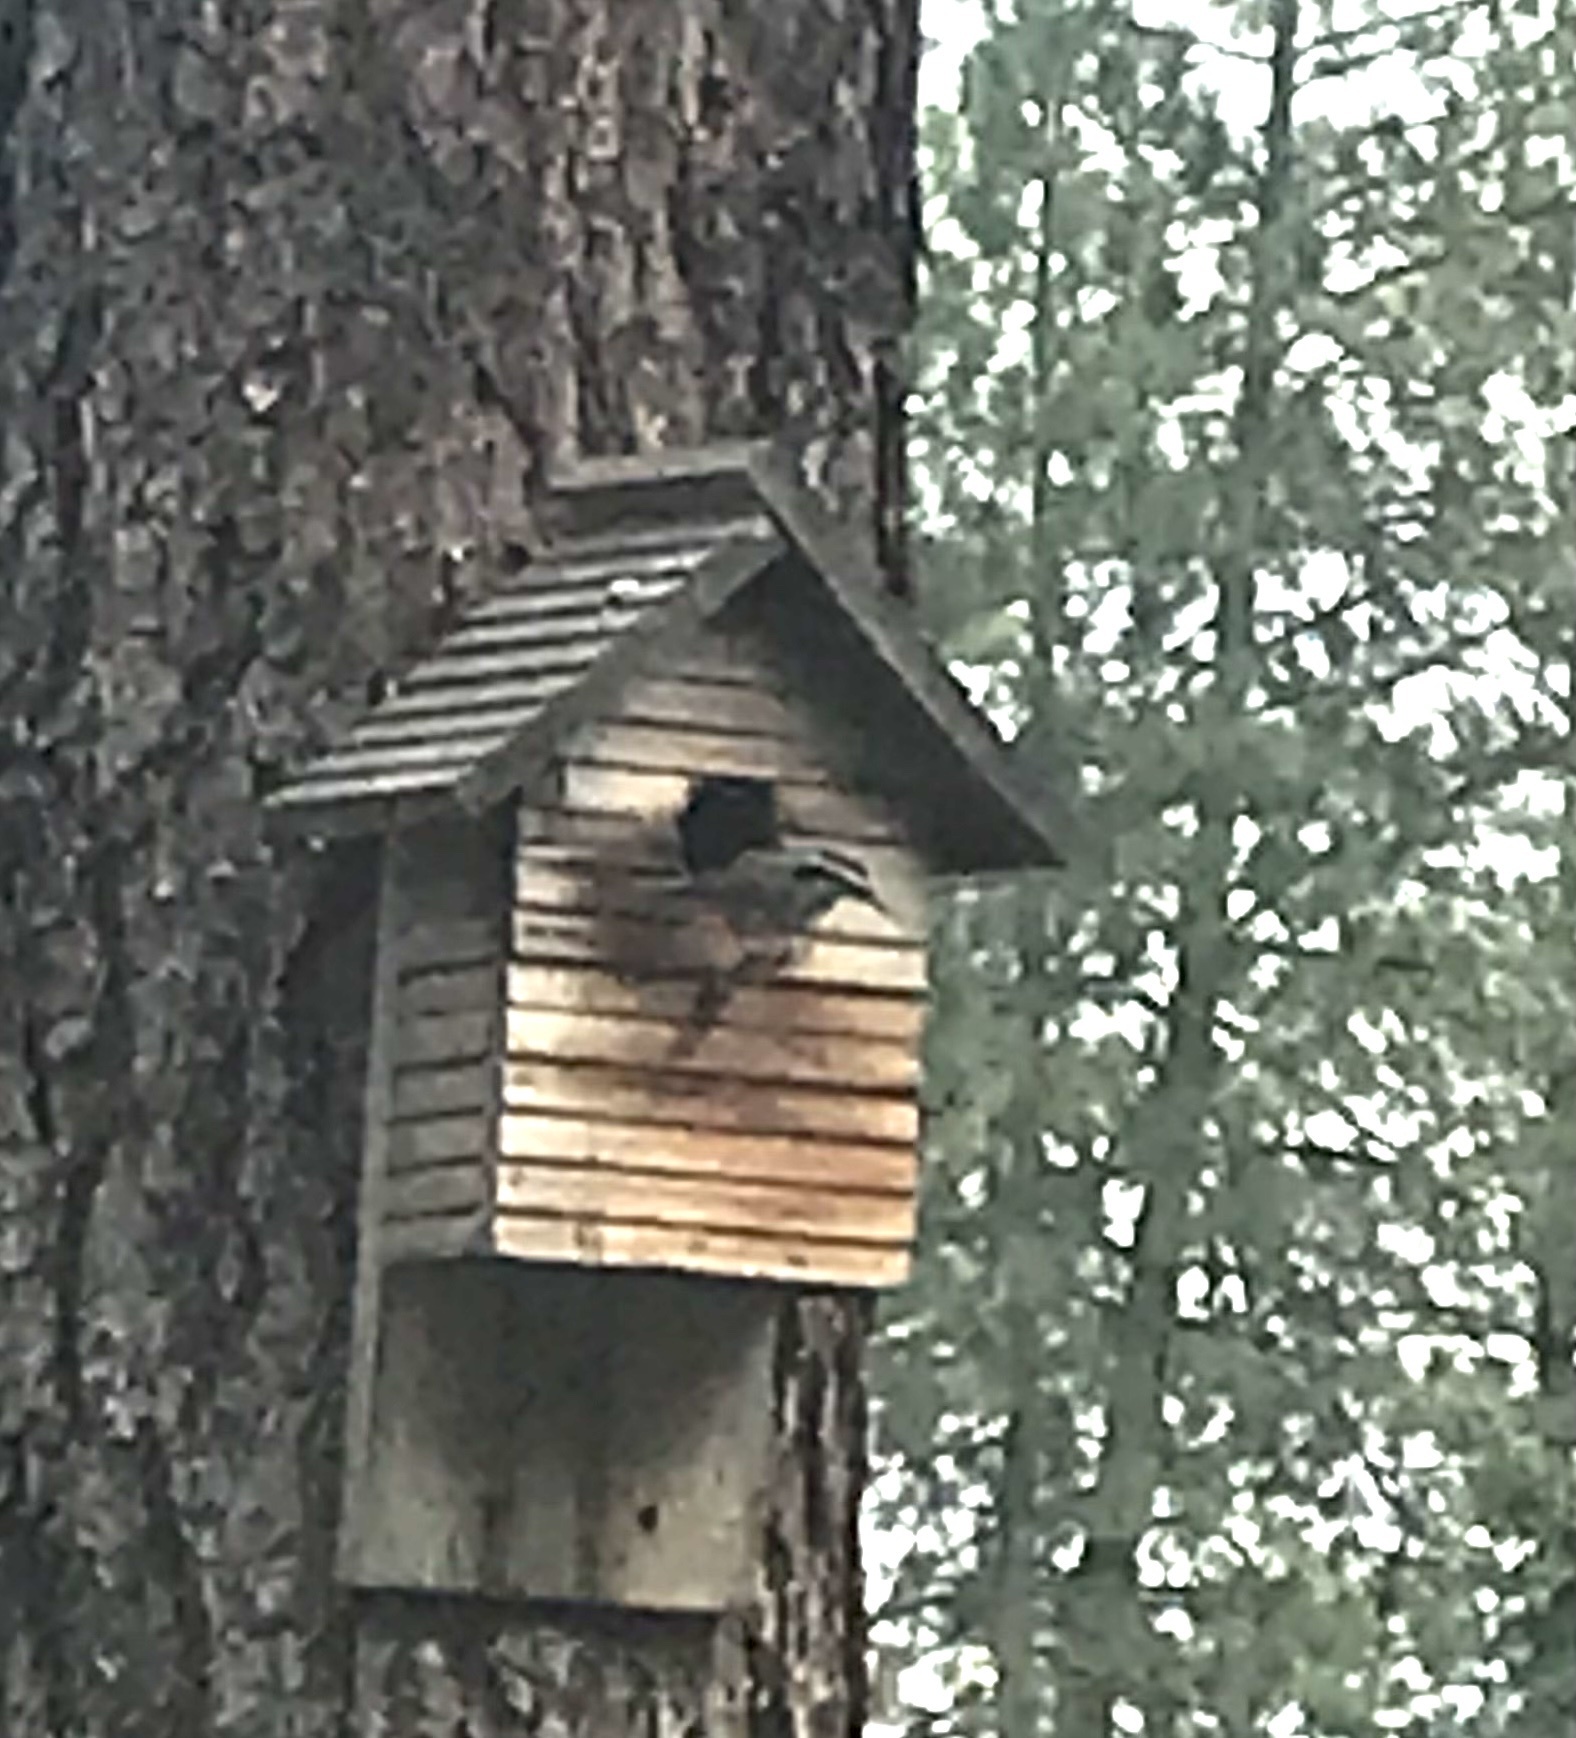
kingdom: Animalia
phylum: Chordata
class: Aves
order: Passeriformes
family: Sittidae
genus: Sitta
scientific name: Sitta canadensis
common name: Red-breasted nuthatch
